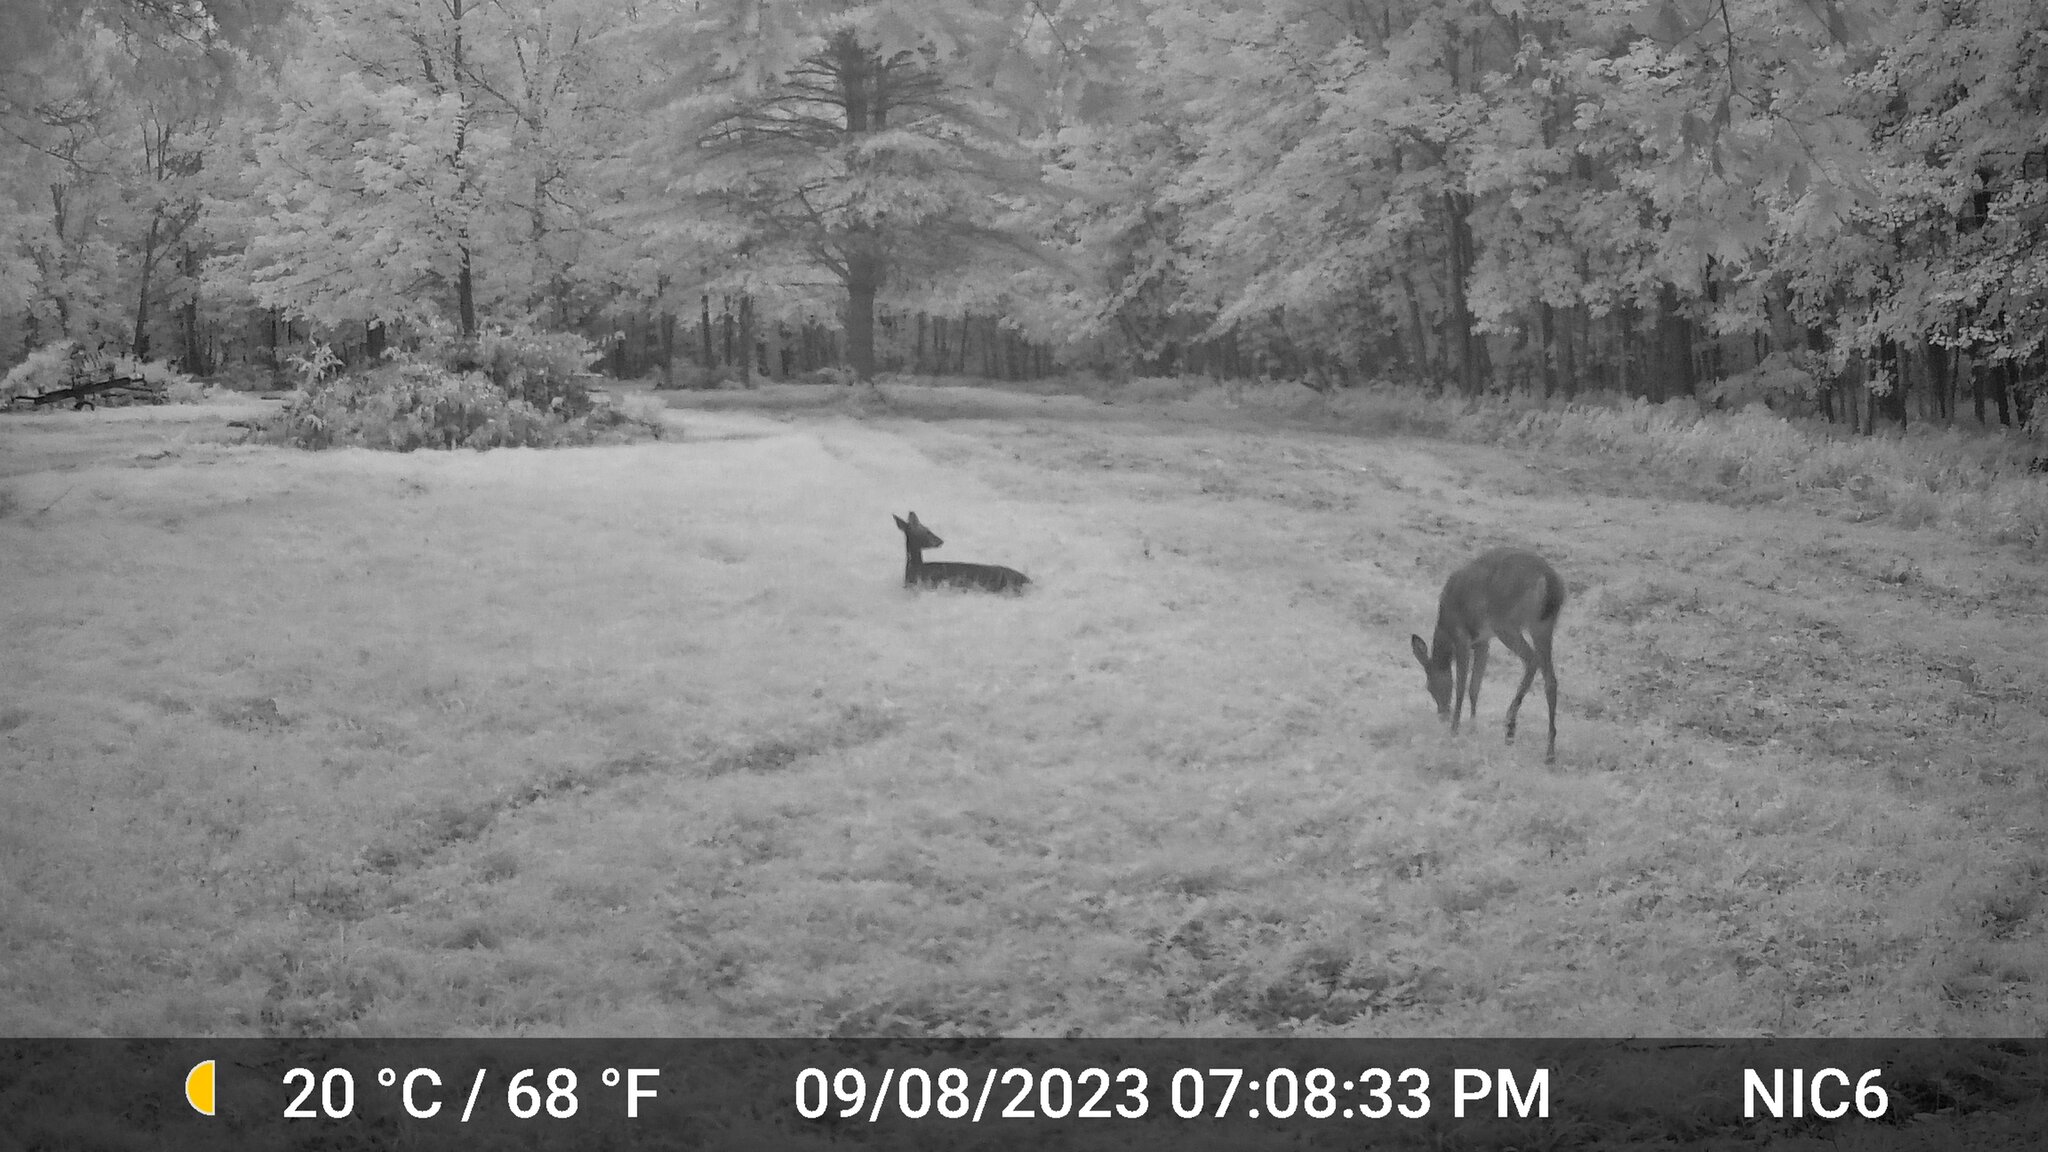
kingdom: Animalia
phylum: Chordata
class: Mammalia
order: Artiodactyla
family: Cervidae
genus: Odocoileus
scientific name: Odocoileus virginianus
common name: White-tailed deer
